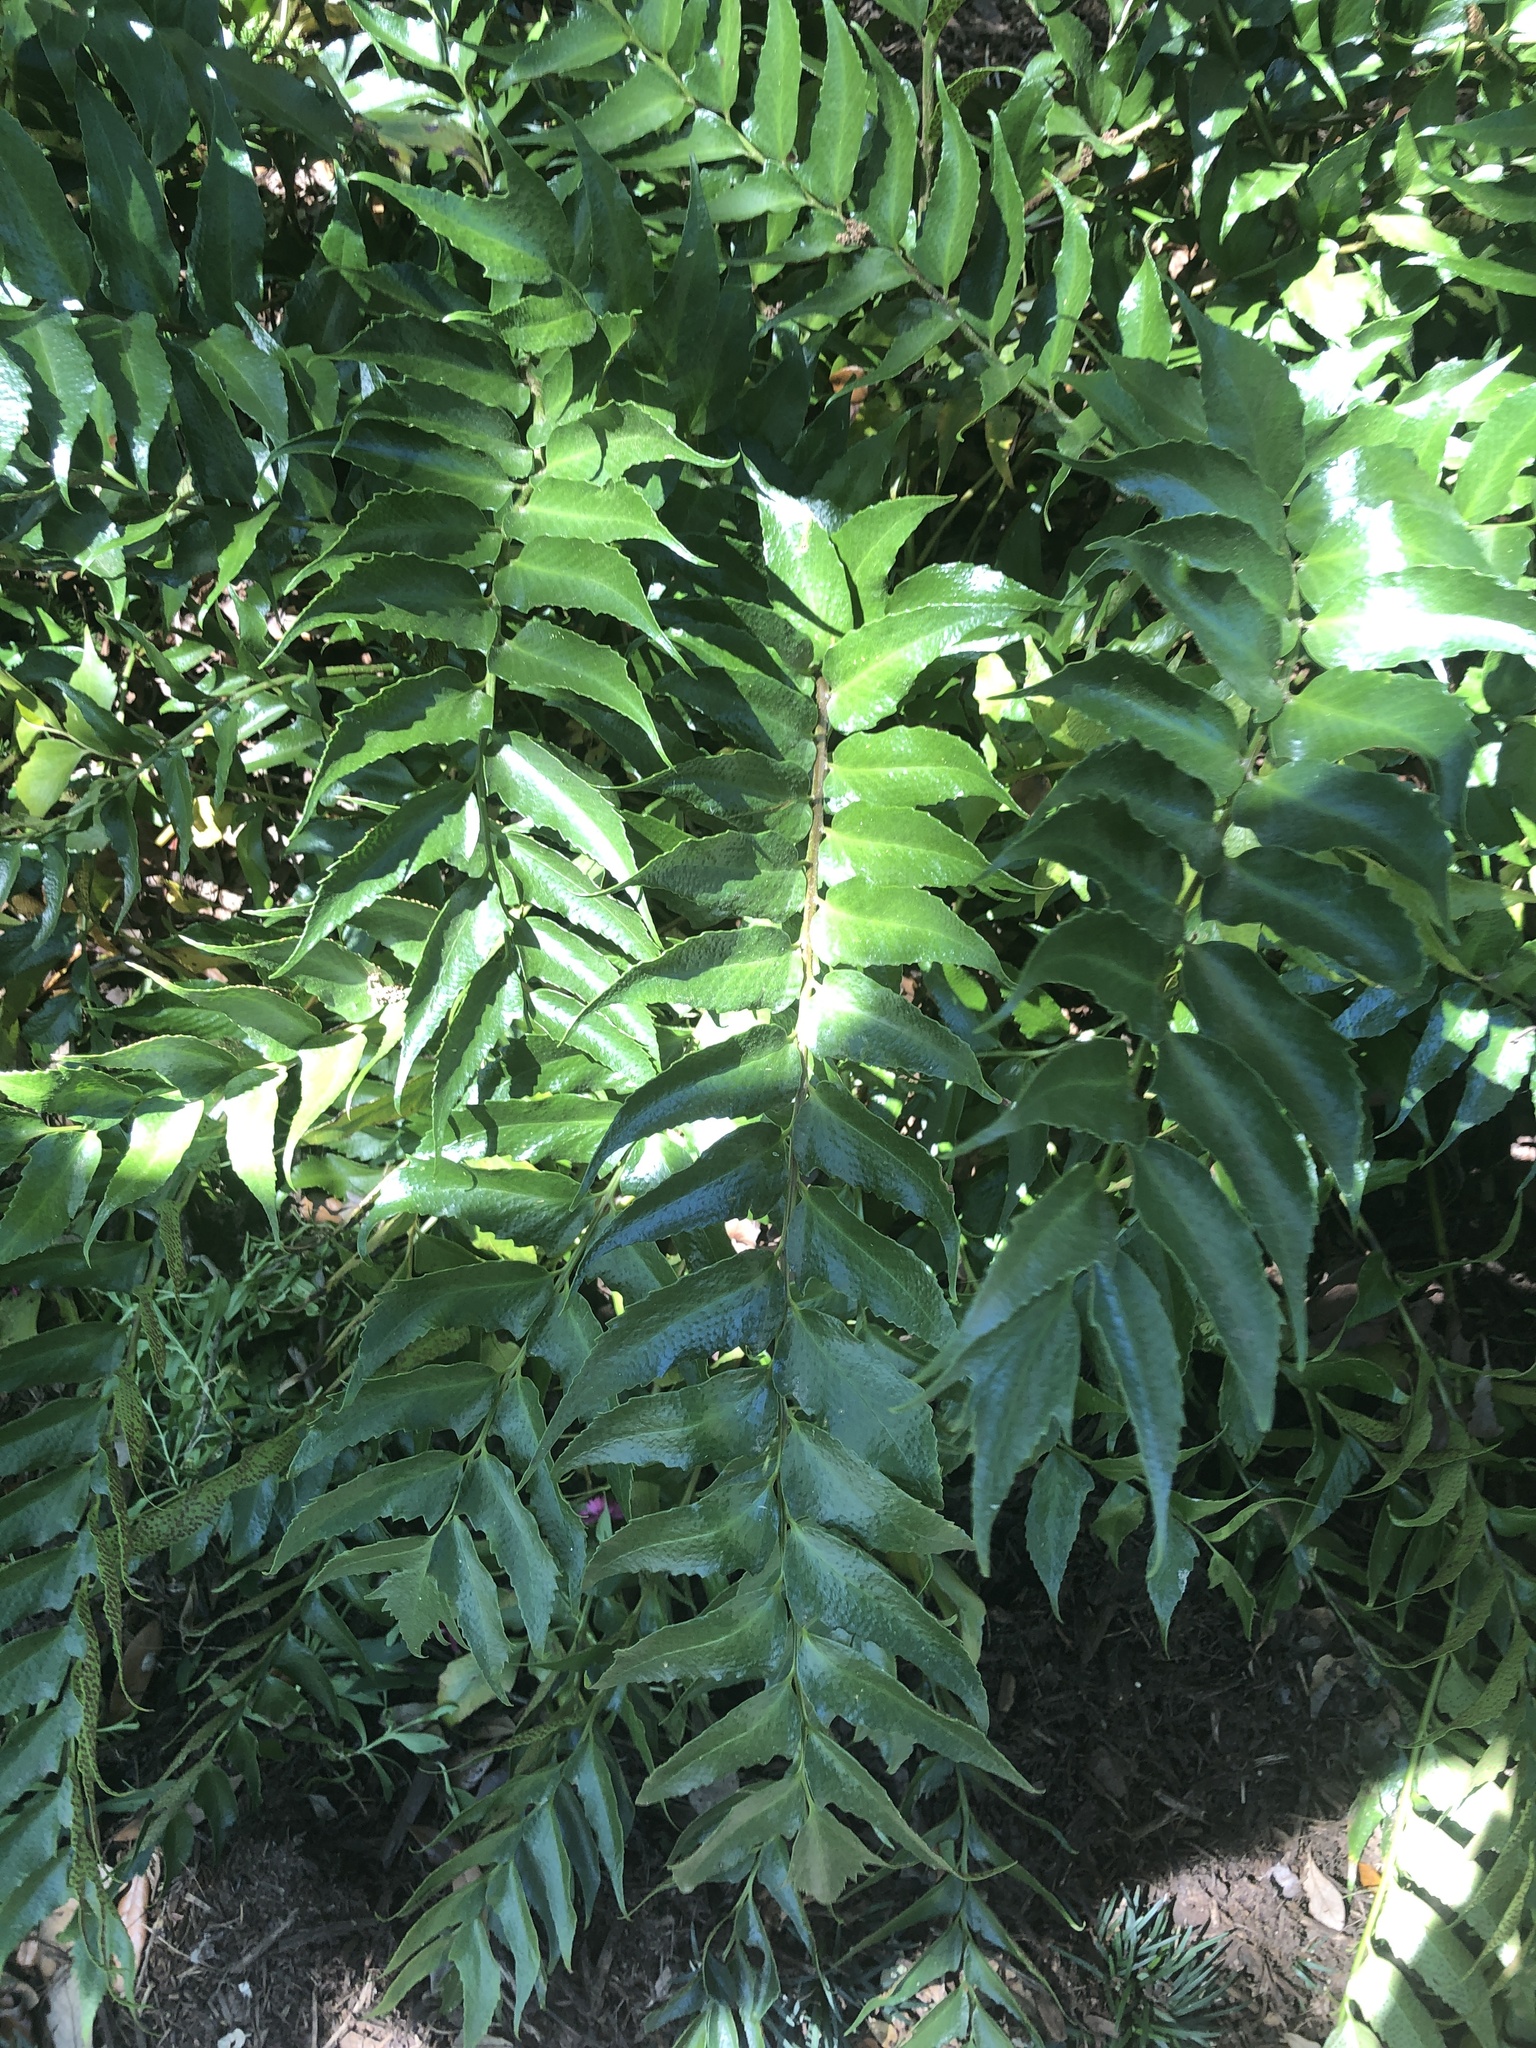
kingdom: Plantae
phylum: Tracheophyta
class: Polypodiopsida
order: Polypodiales
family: Dryopteridaceae
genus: Cyrtomium
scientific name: Cyrtomium falcatum
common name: House holly-fern
